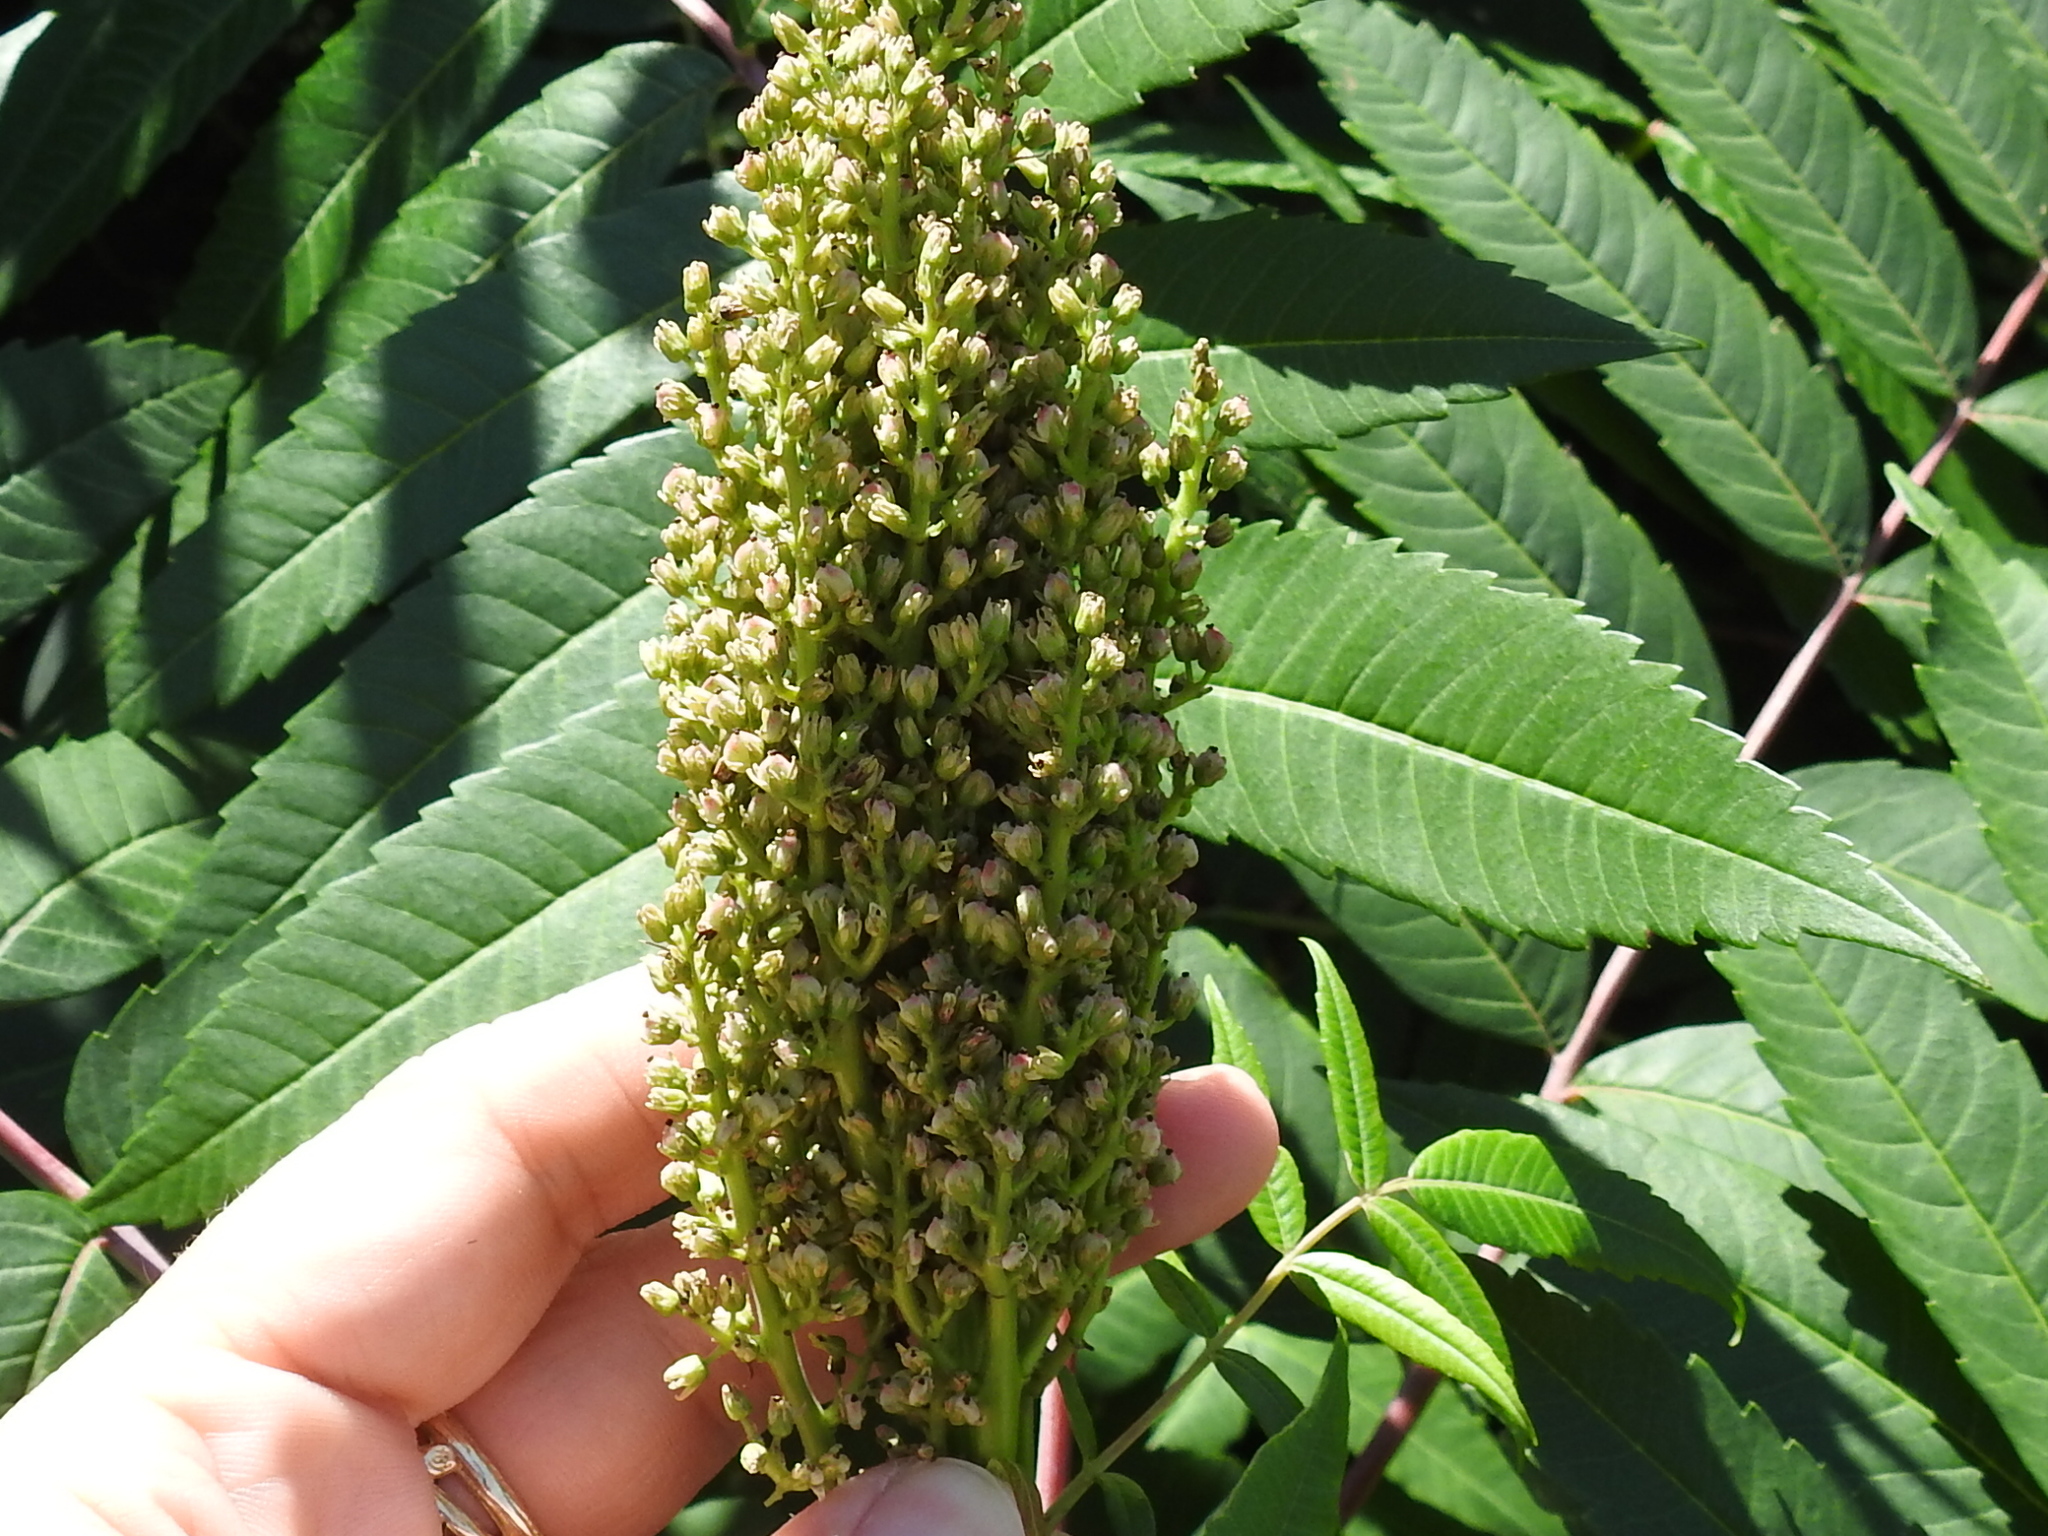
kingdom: Plantae
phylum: Tracheophyta
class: Magnoliopsida
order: Sapindales
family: Anacardiaceae
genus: Rhus
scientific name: Rhus glabra
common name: Scarlet sumac
